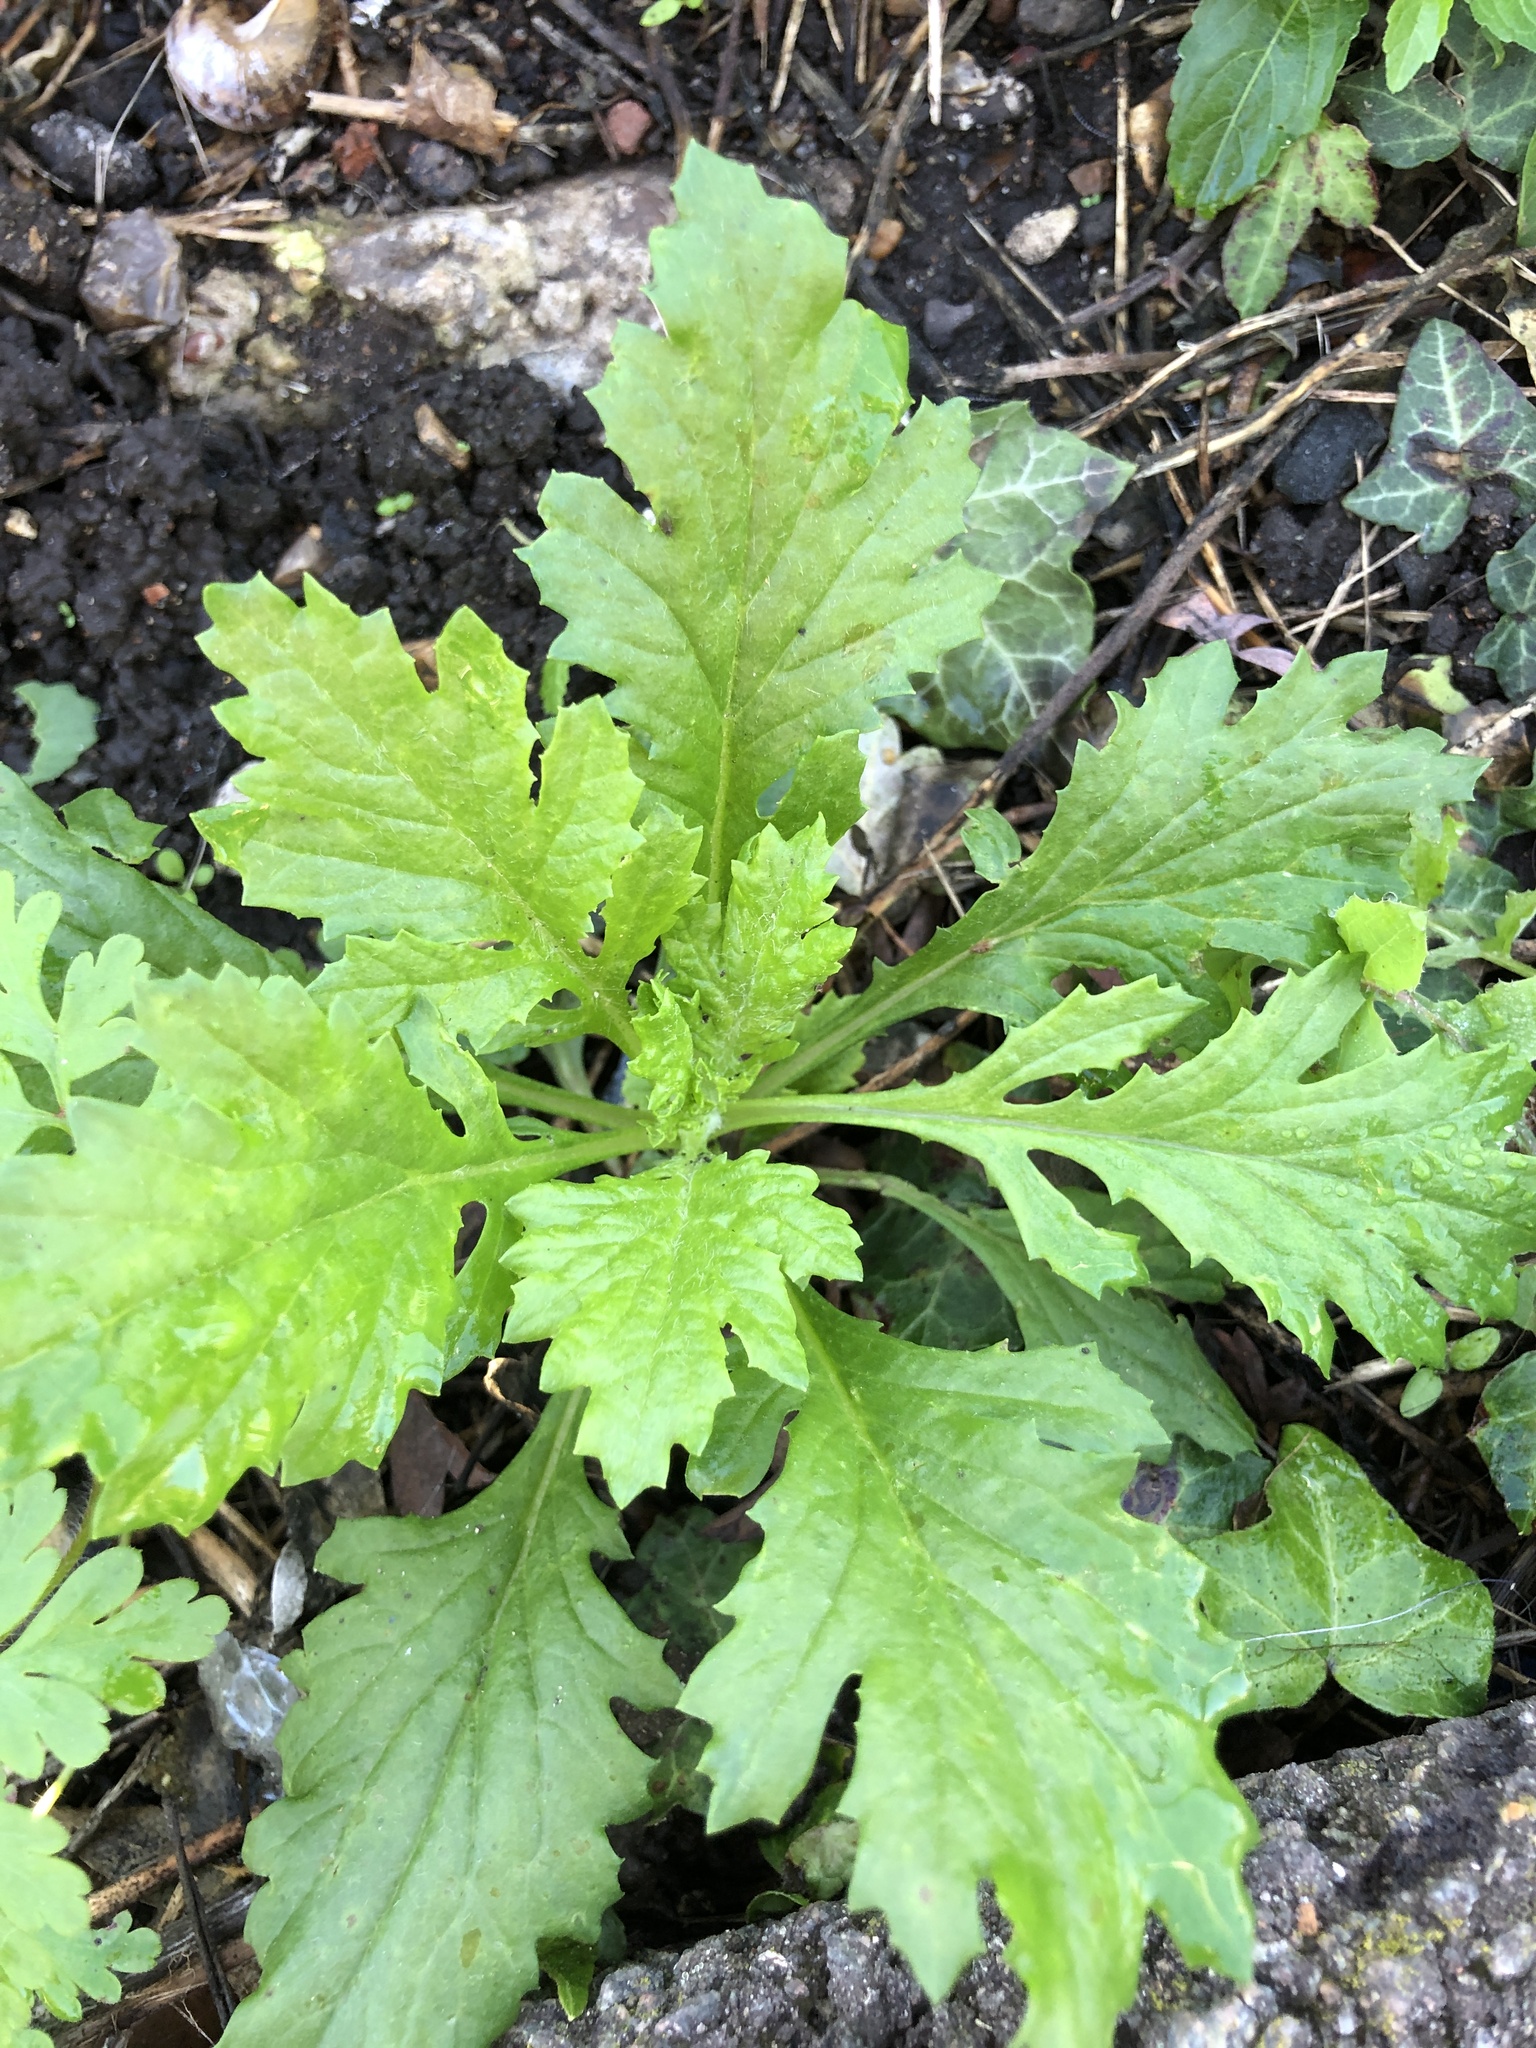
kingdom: Plantae
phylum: Tracheophyta
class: Magnoliopsida
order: Asterales
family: Asteraceae
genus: Jacobaea
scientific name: Jacobaea vulgaris
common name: Stinking willie
